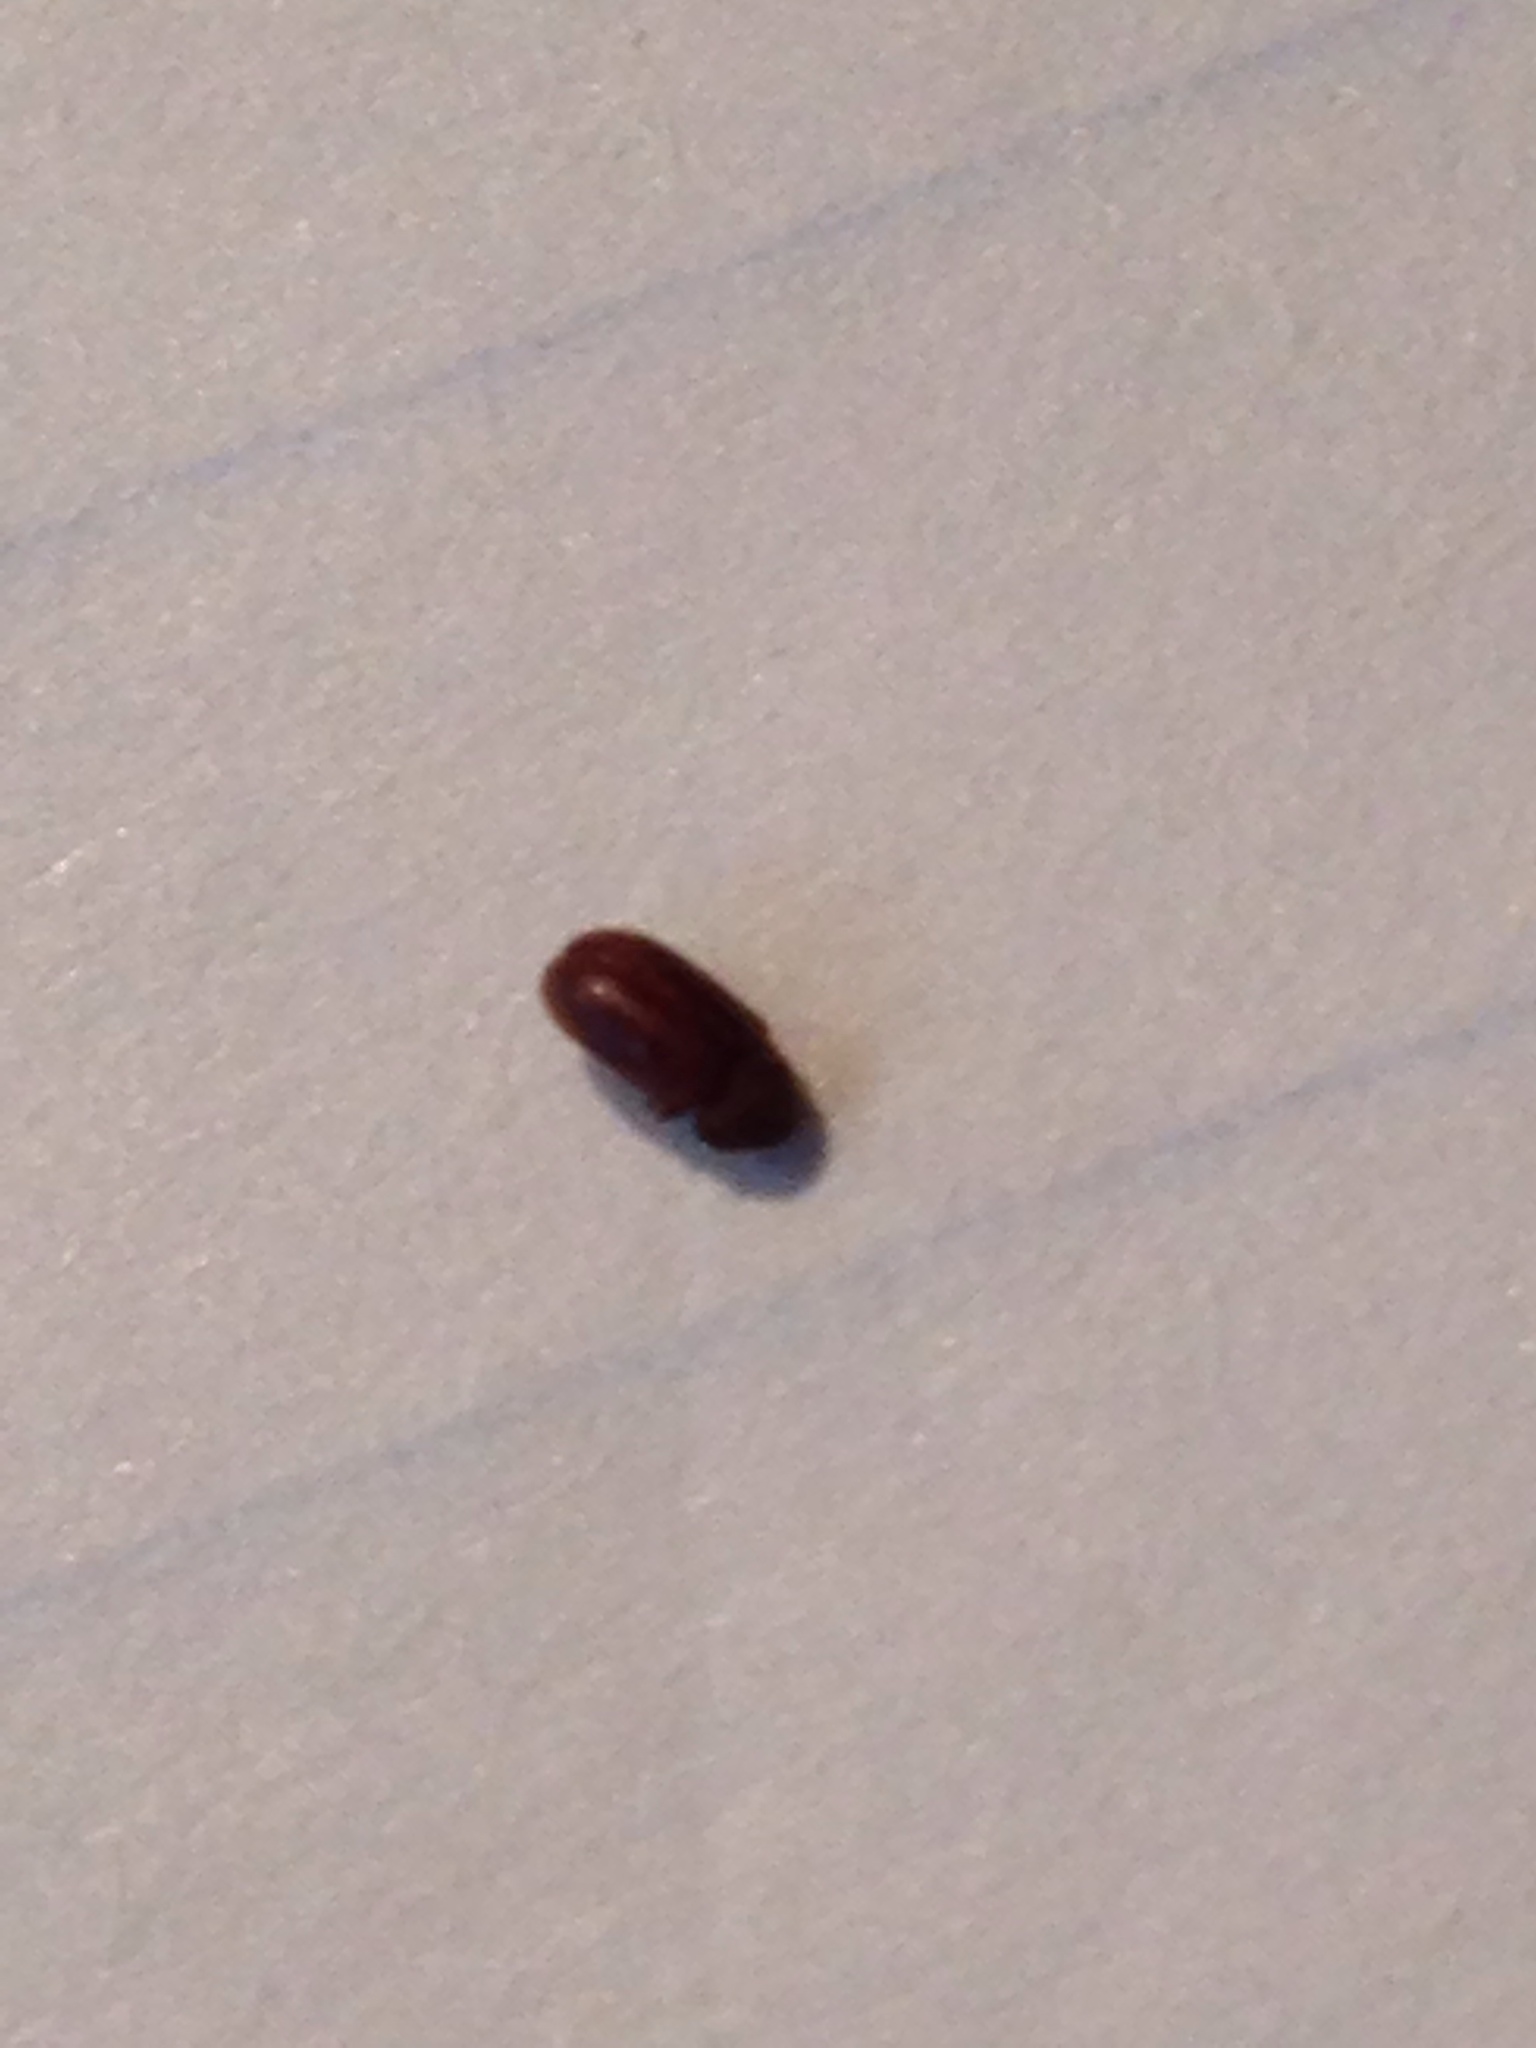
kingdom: Animalia
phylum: Arthropoda
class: Insecta
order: Coleoptera
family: Anobiidae
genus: Stegobium
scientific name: Stegobium paniceum
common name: Drugstore beetle
